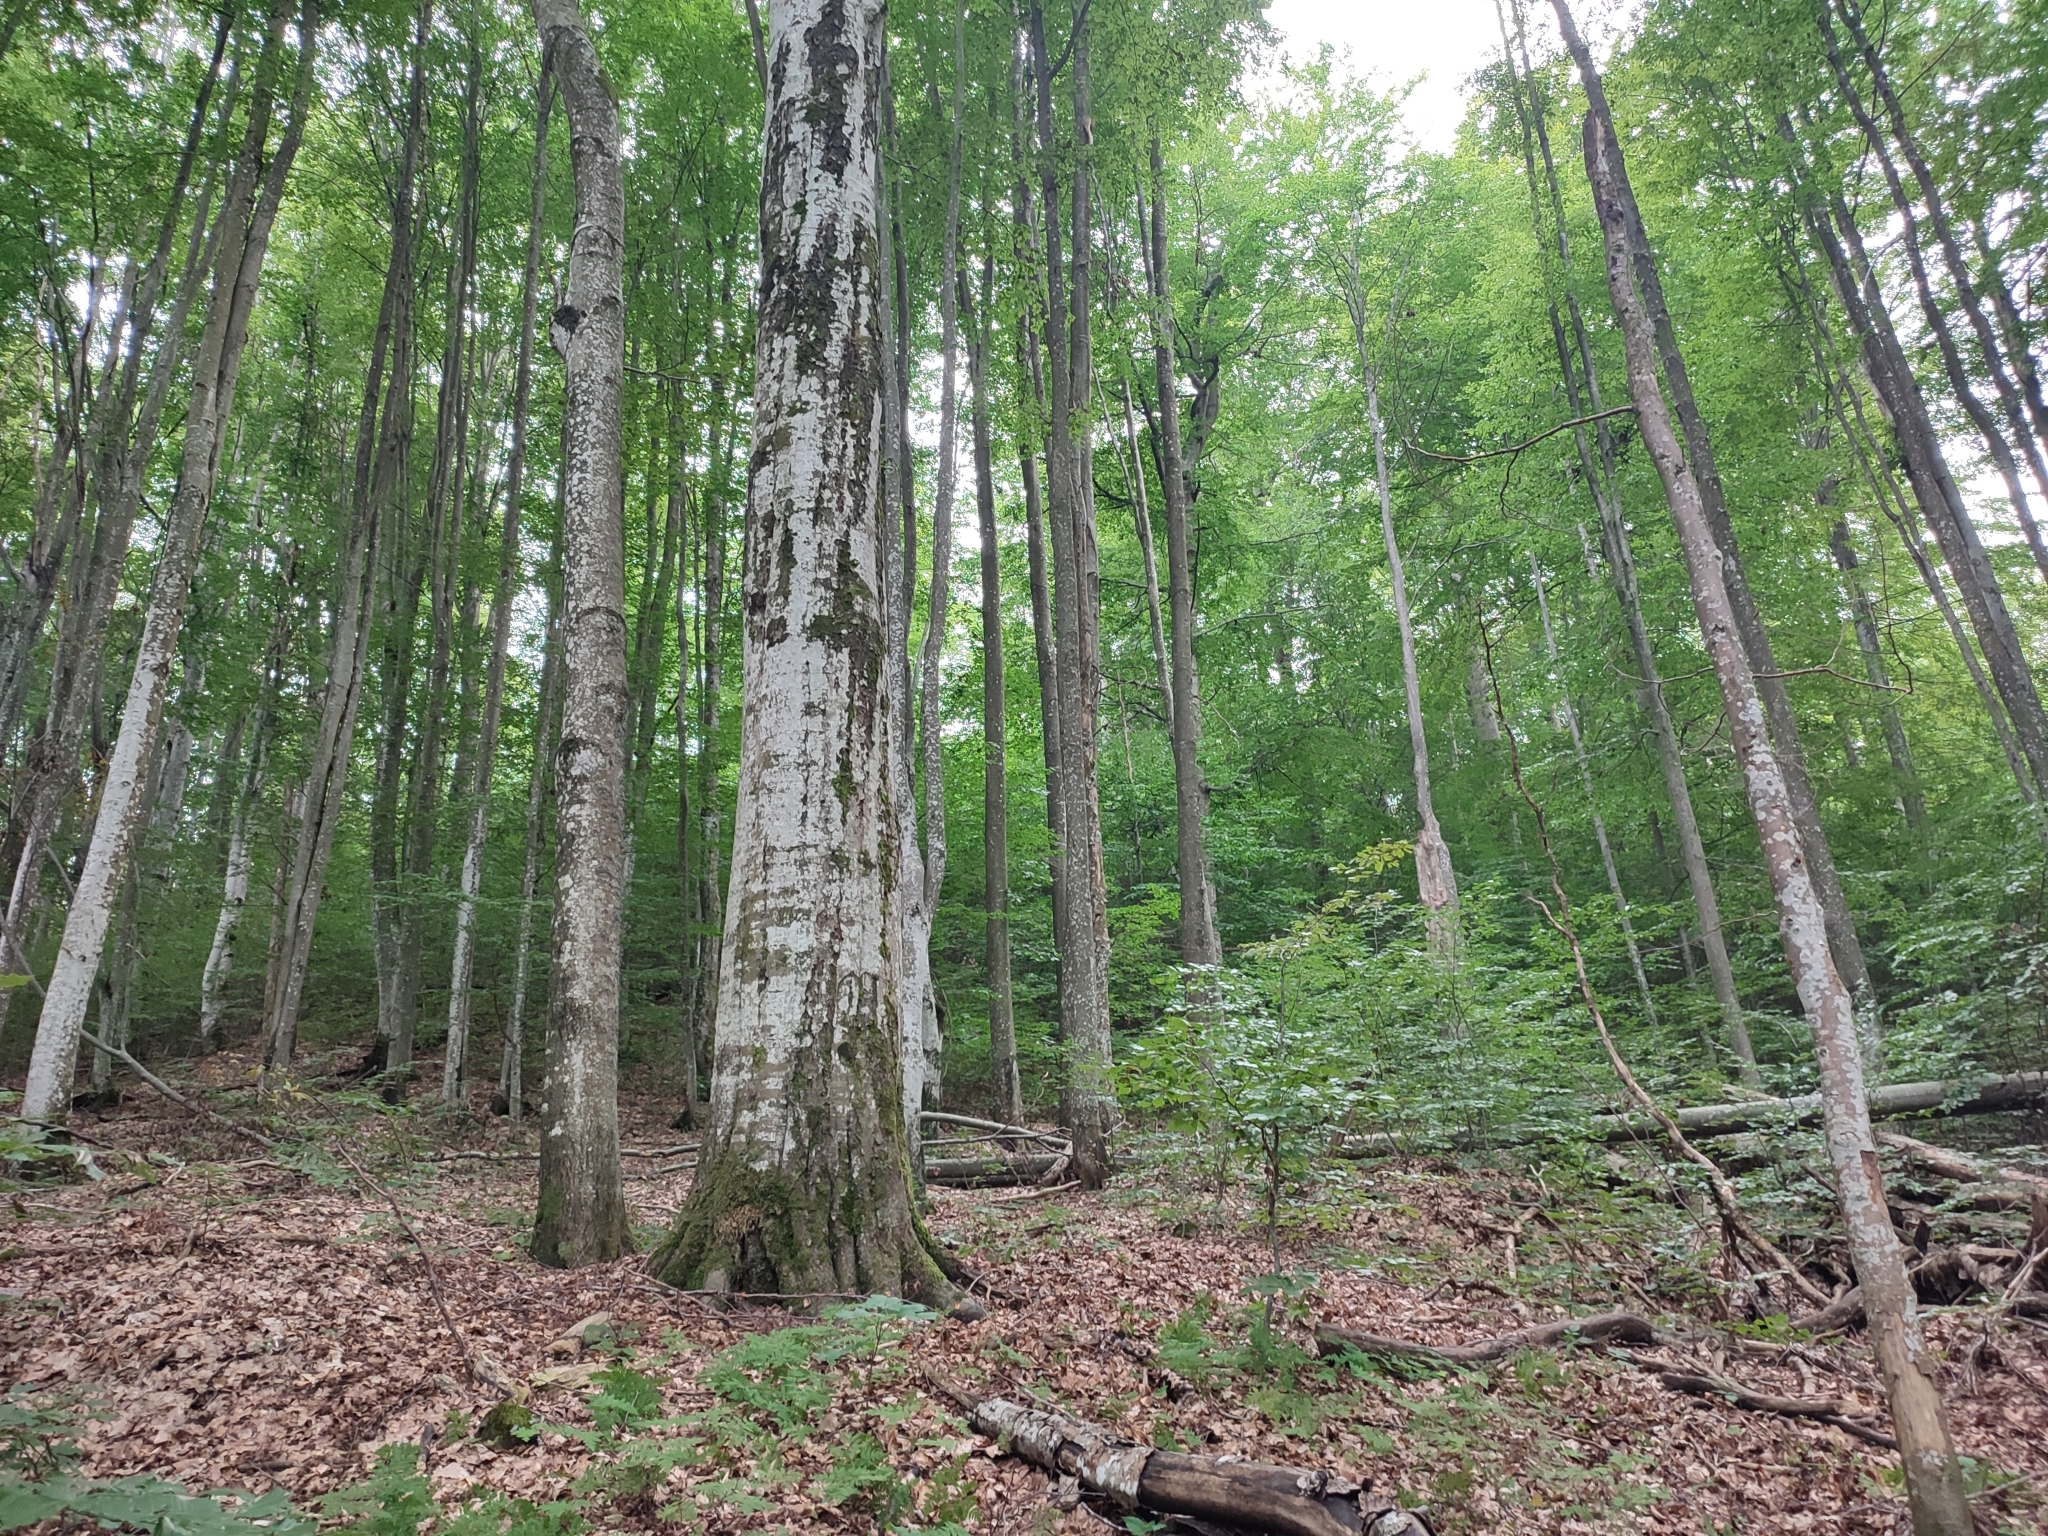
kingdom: Plantae
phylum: Tracheophyta
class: Magnoliopsida
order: Fagales
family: Fagaceae
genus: Fagus
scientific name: Fagus sylvatica
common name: Beech
